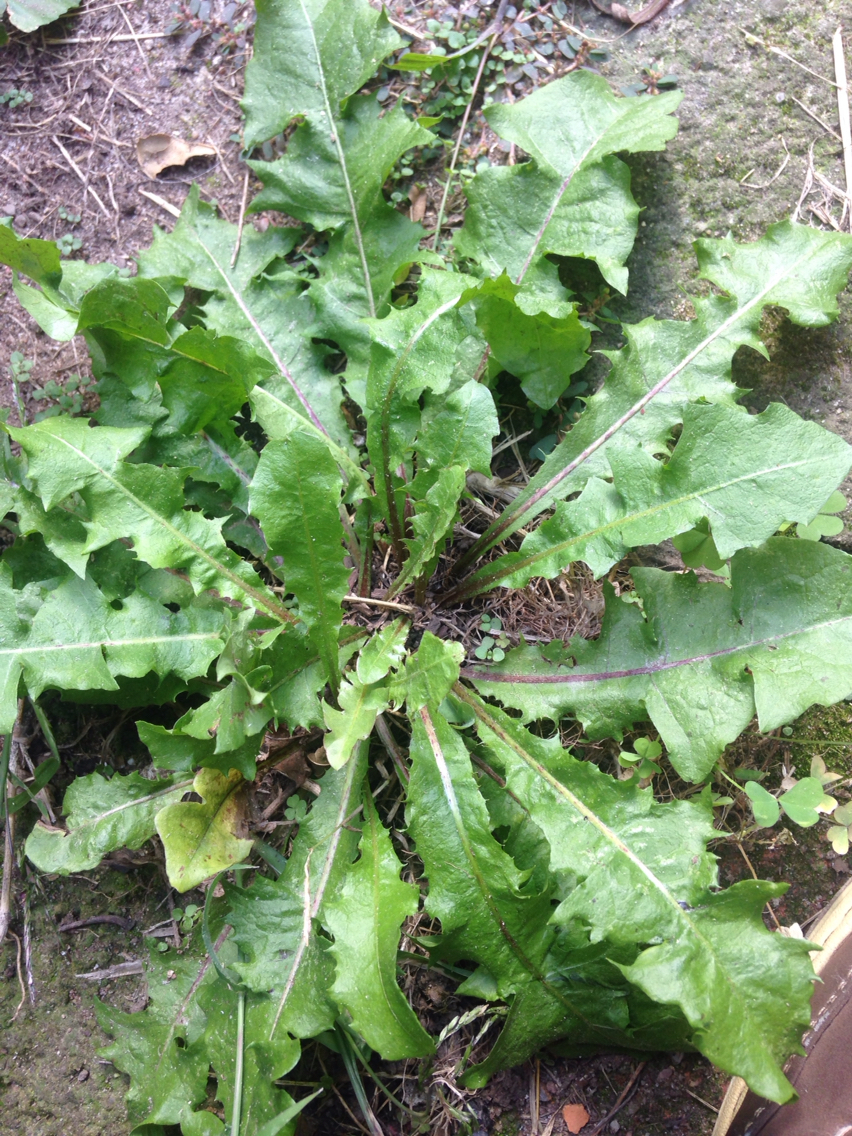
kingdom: Plantae
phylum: Tracheophyta
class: Magnoliopsida
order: Asterales
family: Asteraceae
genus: Taraxacum
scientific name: Taraxacum officinale
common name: Common dandelion
